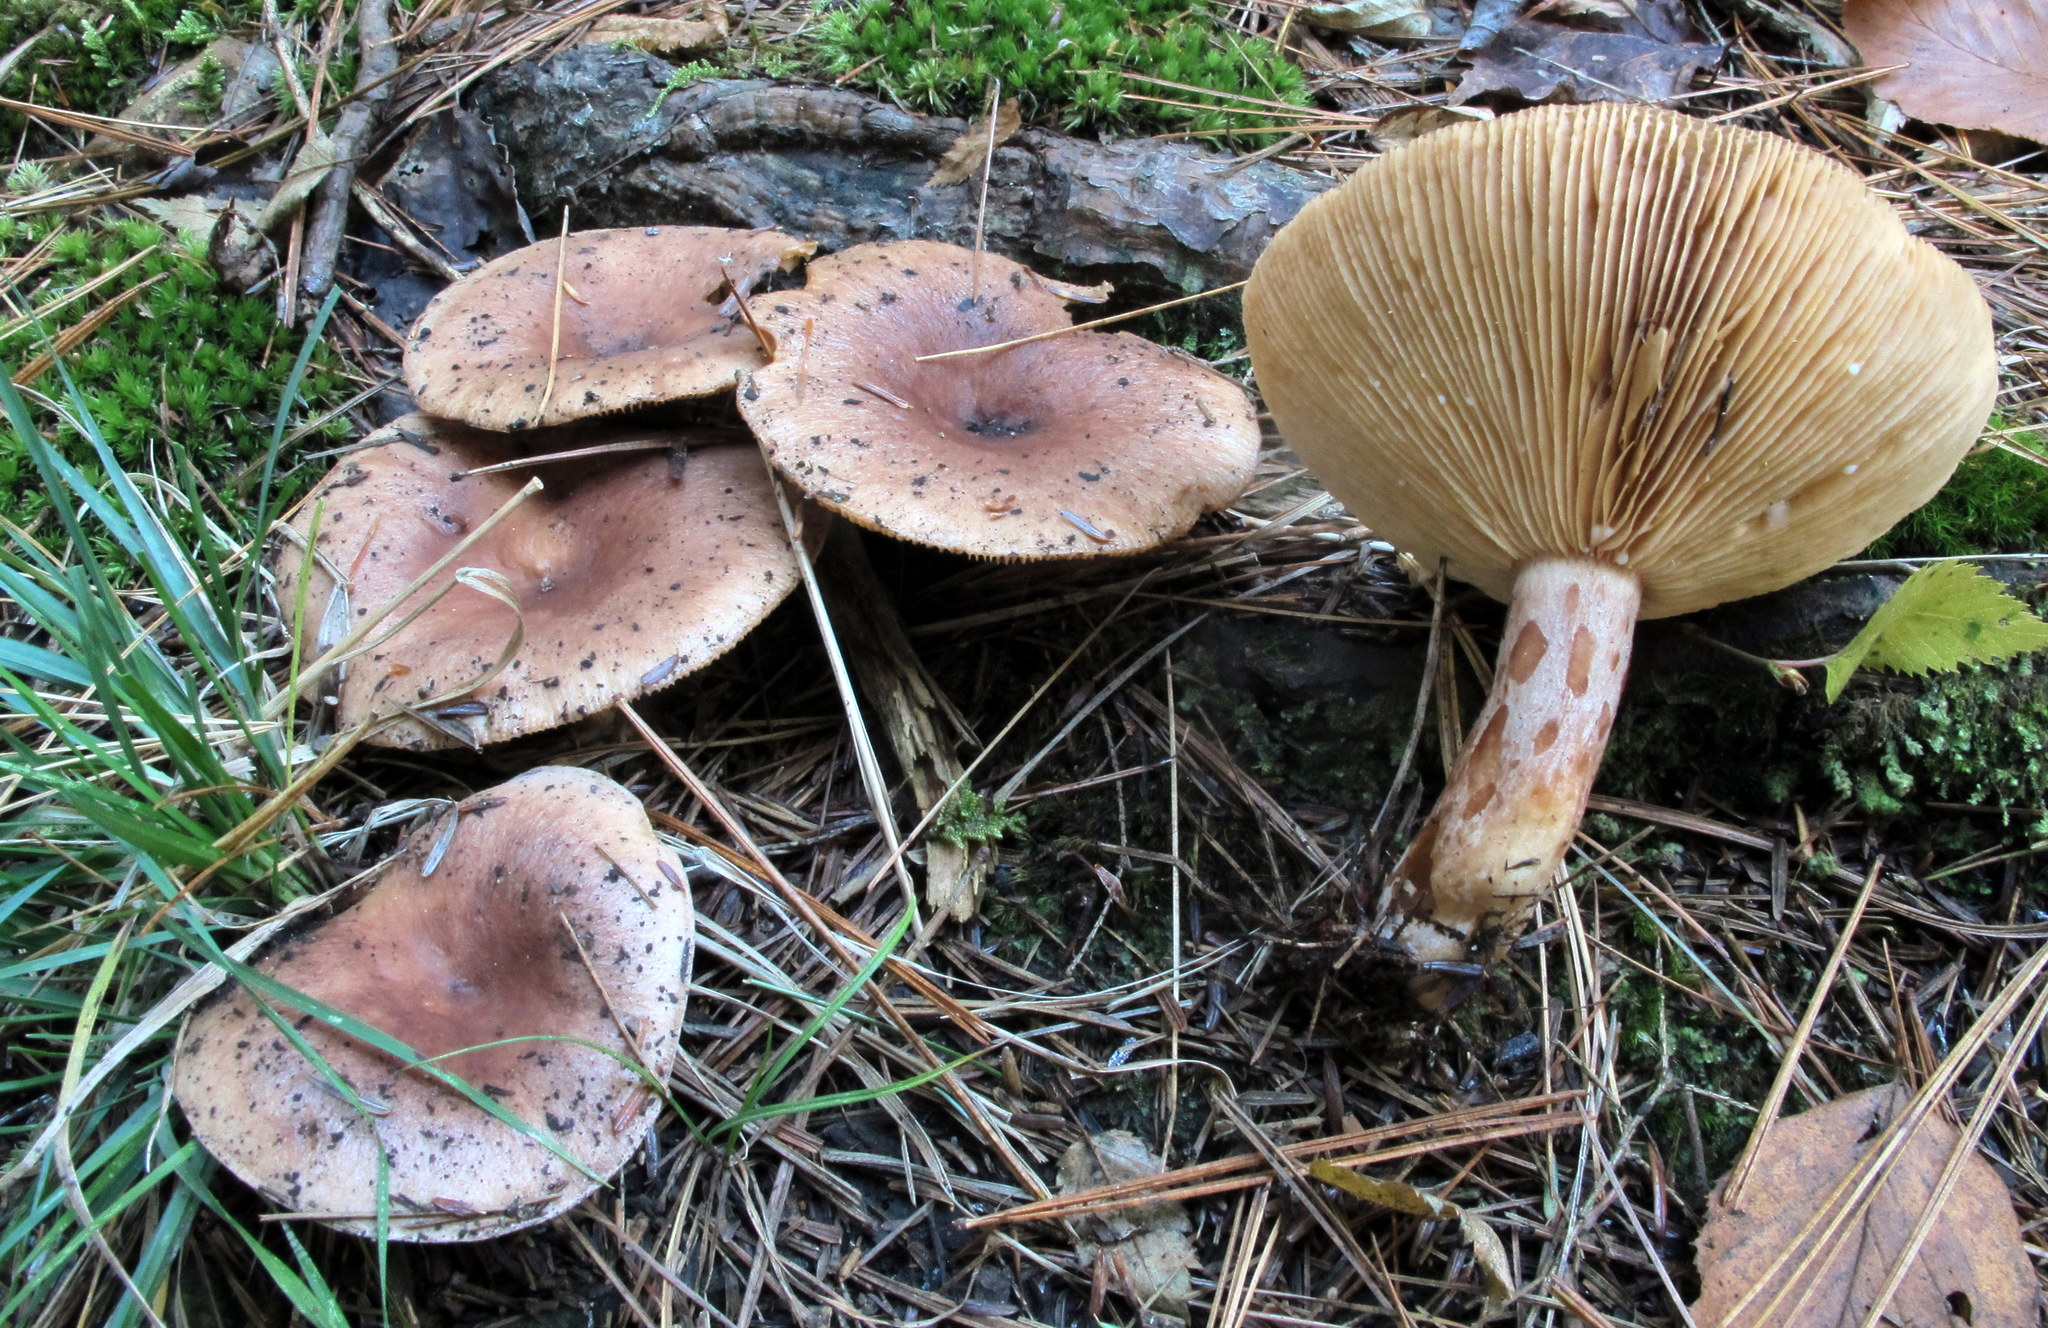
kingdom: Fungi
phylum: Basidiomycota
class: Agaricomycetes
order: Russulales
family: Russulaceae
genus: Lactarius
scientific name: Lactarius hysginus
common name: Dyed milkcap
